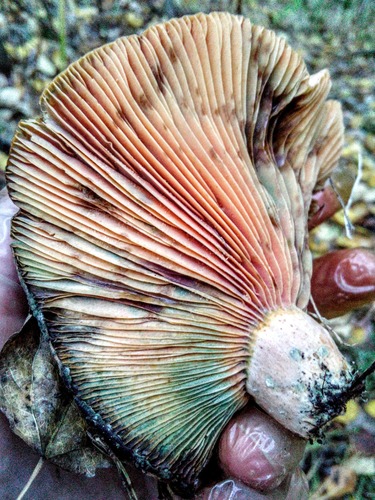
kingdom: Fungi
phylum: Basidiomycota
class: Agaricomycetes
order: Russulales
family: Russulaceae
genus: Lactarius
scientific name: Lactarius deterrimus
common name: False saffron milkcap
